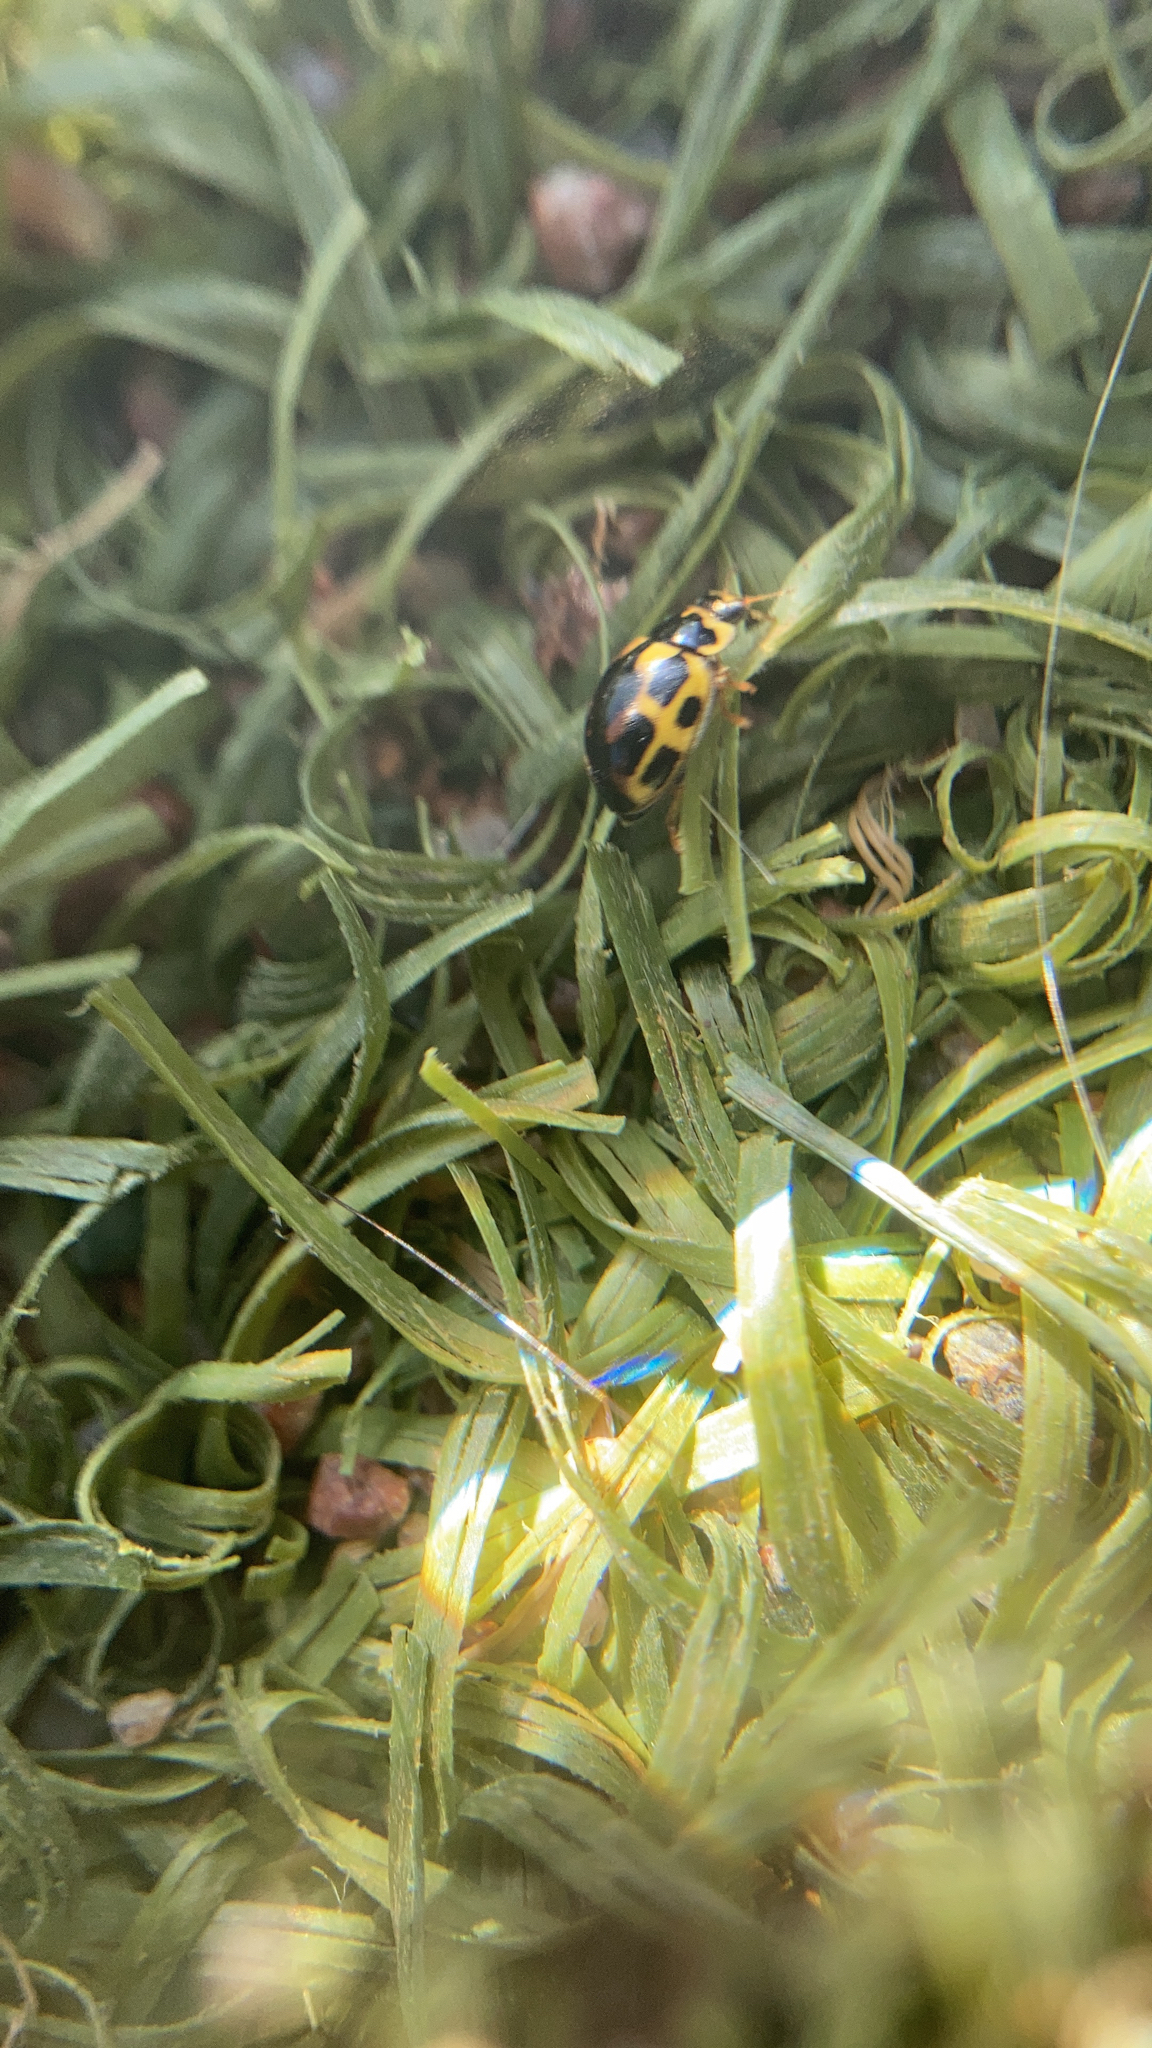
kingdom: Animalia
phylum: Arthropoda
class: Insecta
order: Coleoptera
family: Coccinellidae
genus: Propylaea
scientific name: Propylaea quatuordecimpunctata
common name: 14-spotted ladybird beetle
